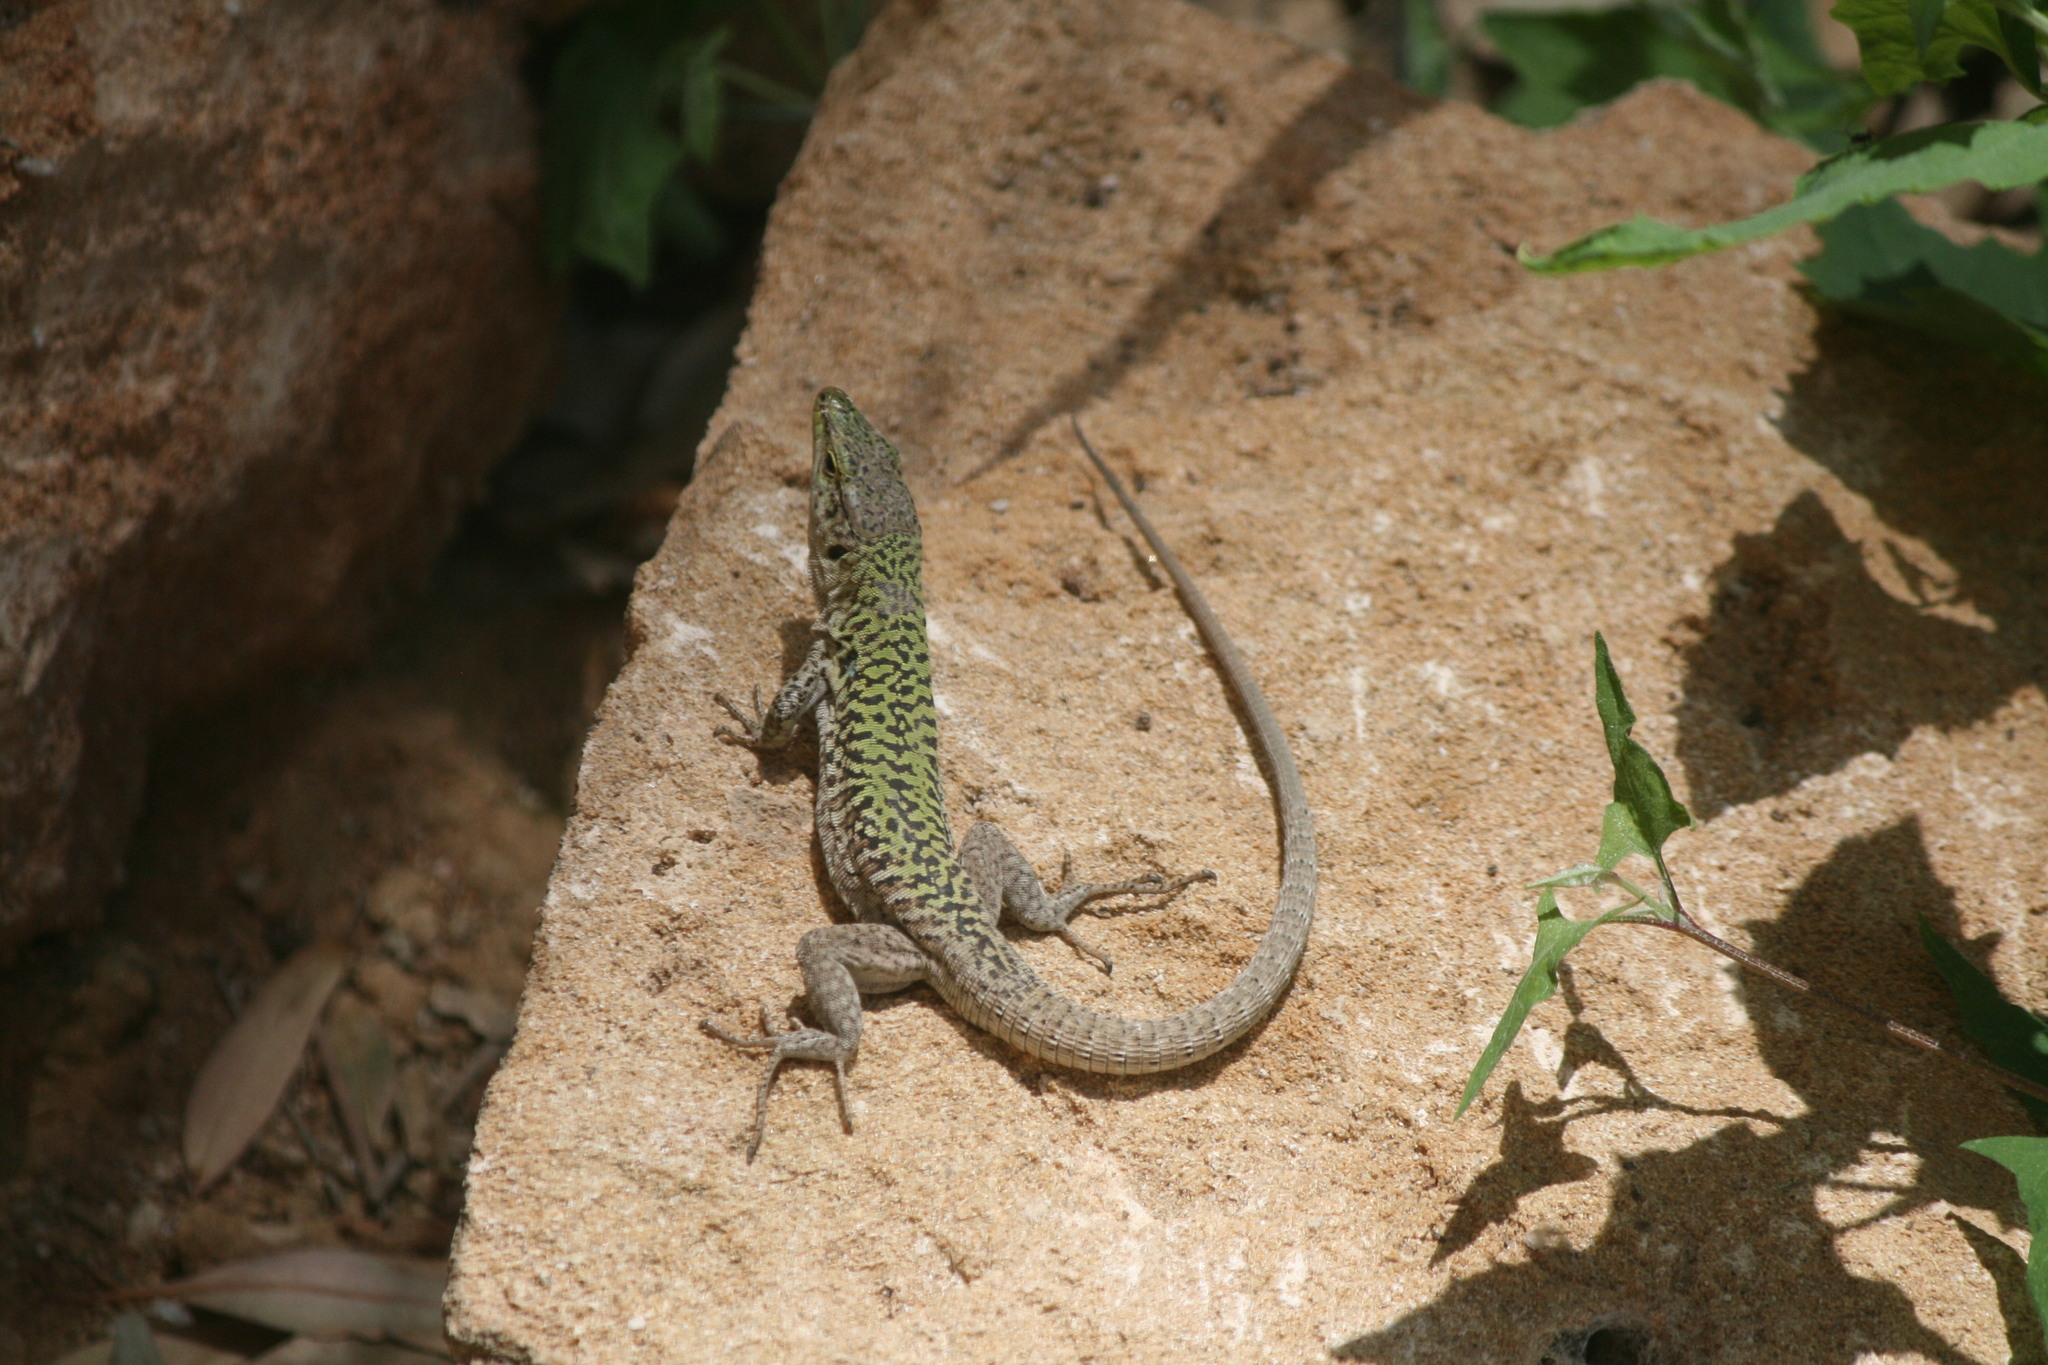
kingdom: Animalia
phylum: Chordata
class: Squamata
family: Lacertidae
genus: Podarcis
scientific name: Podarcis siculus
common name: Italian wall lizard
